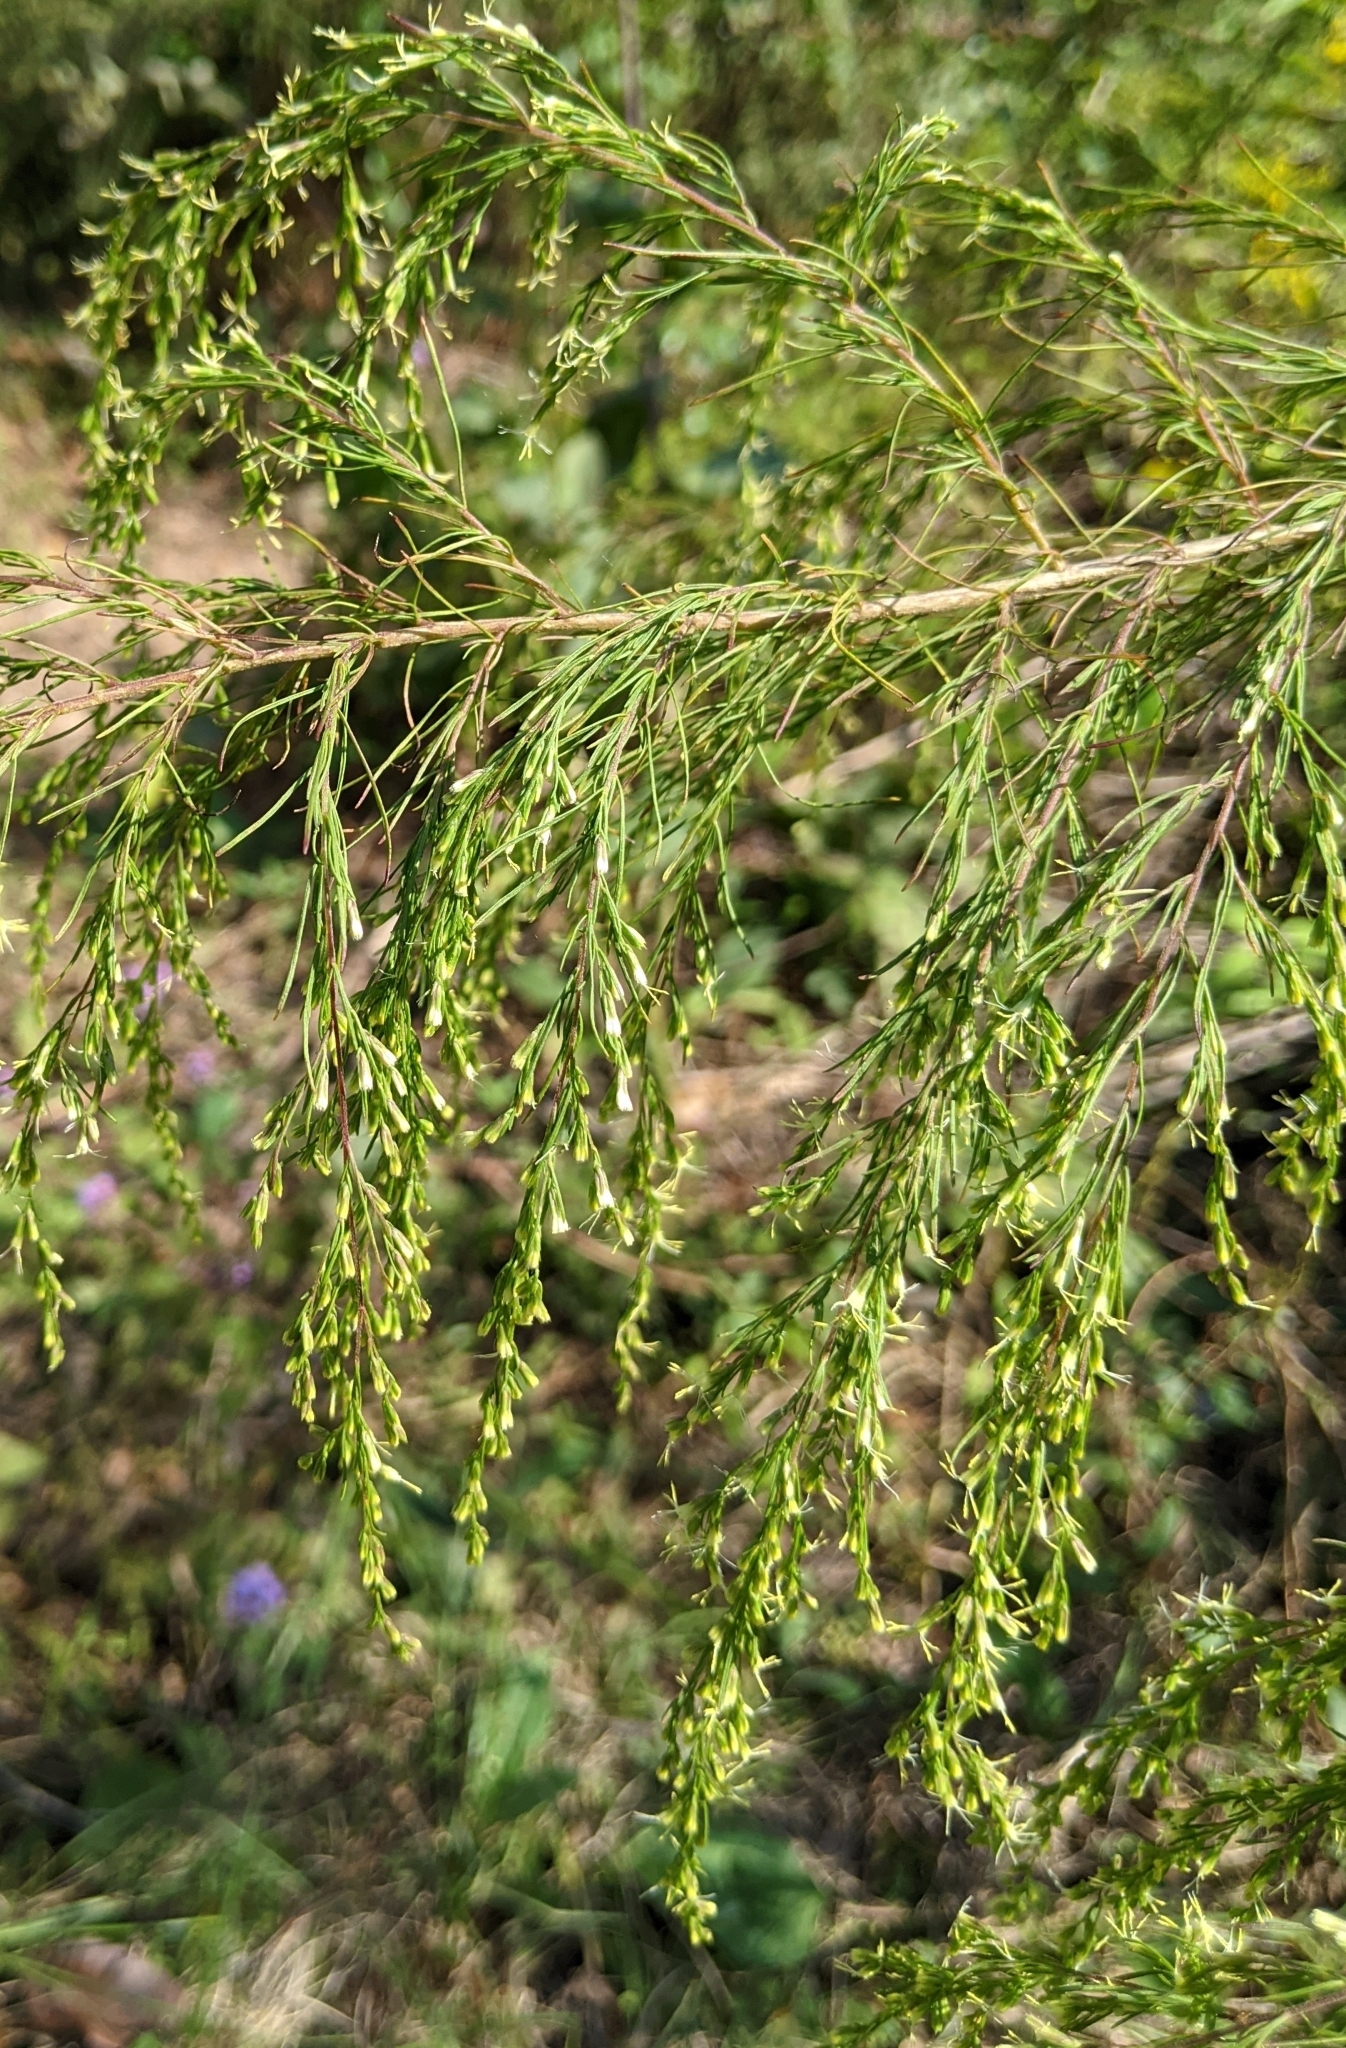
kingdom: Plantae
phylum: Tracheophyta
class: Magnoliopsida
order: Asterales
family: Asteraceae
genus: Eupatorium
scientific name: Eupatorium capillifolium
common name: Dog-fennel
